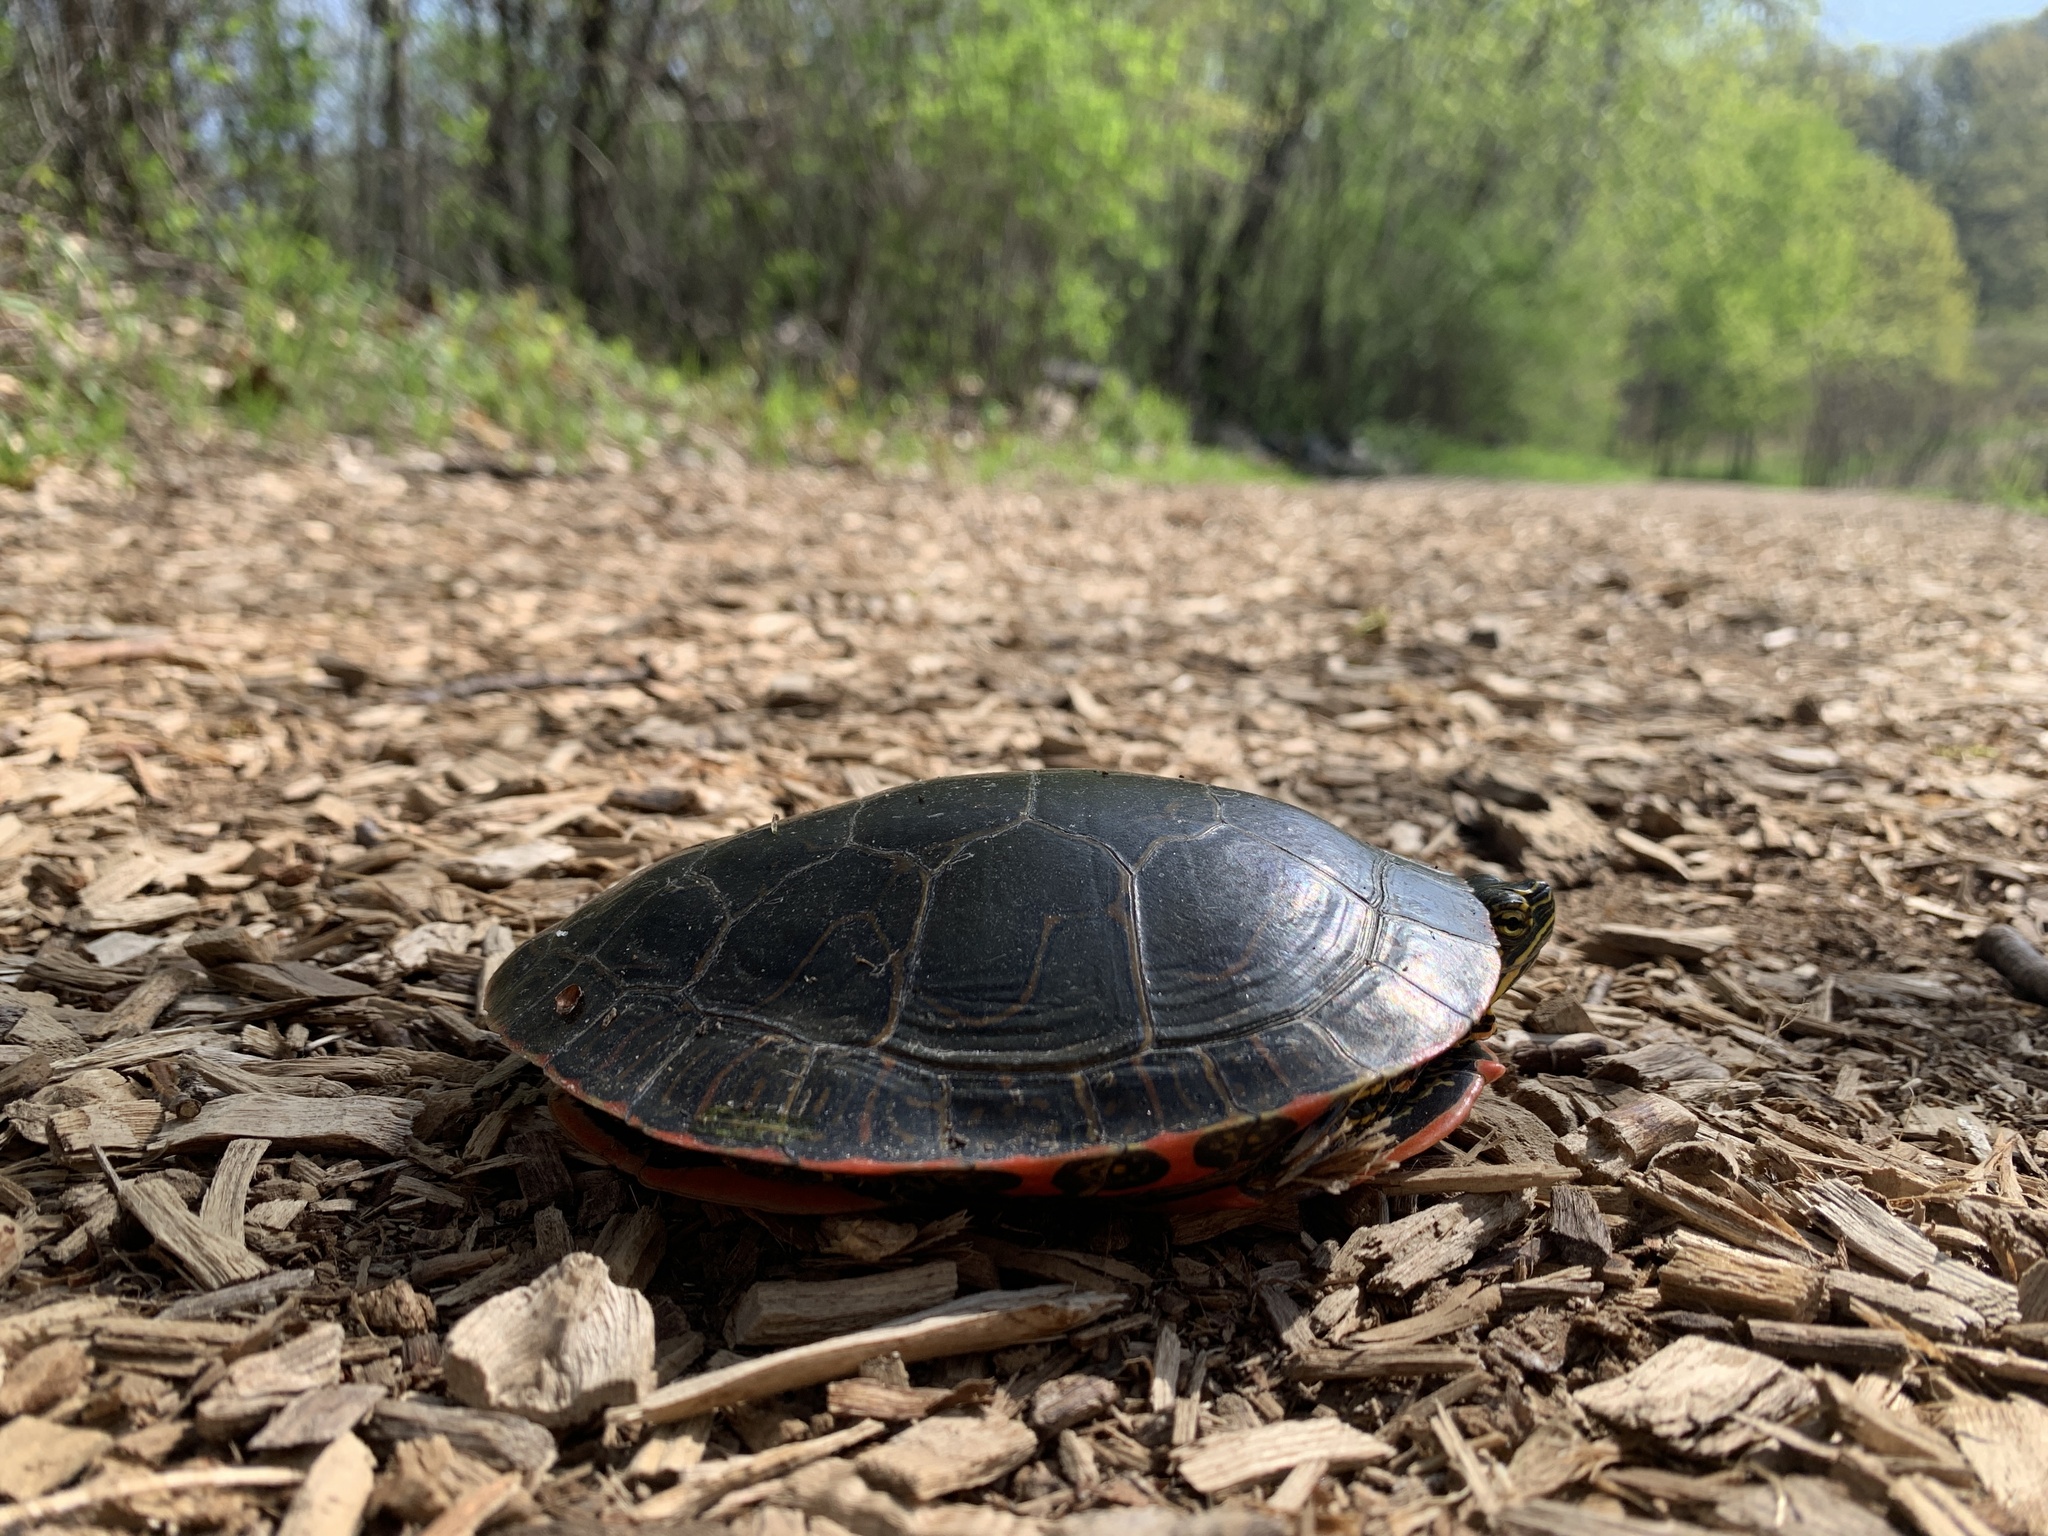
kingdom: Animalia
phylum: Chordata
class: Testudines
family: Emydidae
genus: Chrysemys
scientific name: Chrysemys picta
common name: Painted turtle
